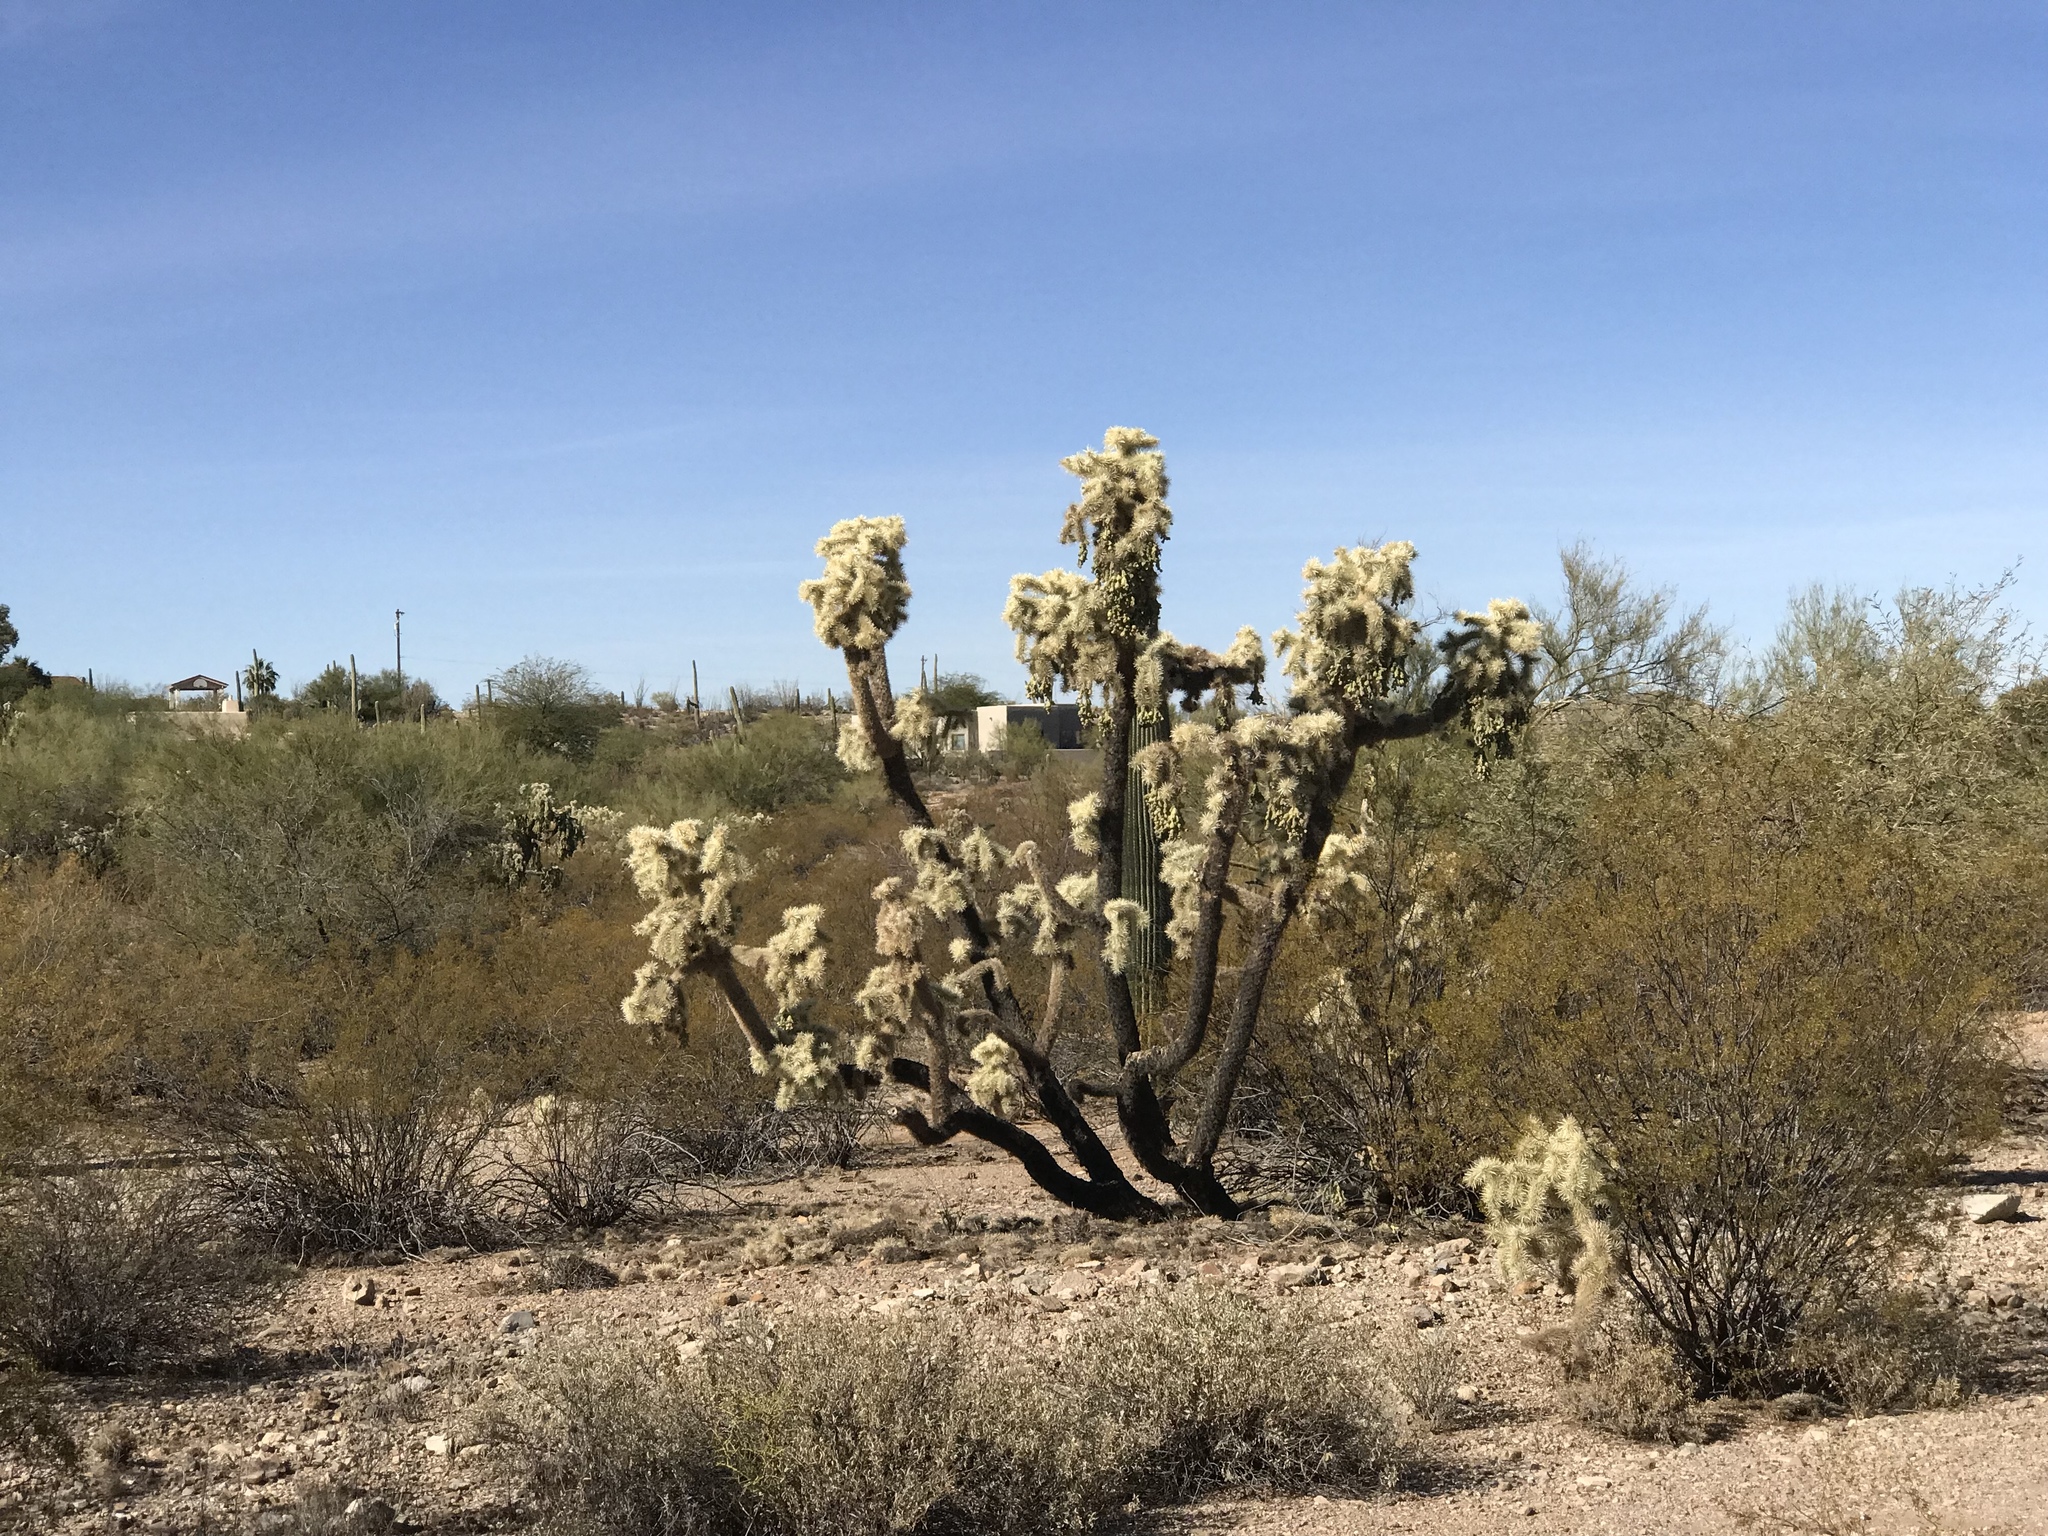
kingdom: Plantae
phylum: Tracheophyta
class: Magnoliopsida
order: Caryophyllales
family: Cactaceae
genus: Cylindropuntia
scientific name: Cylindropuntia fulgida
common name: Jumping cholla
